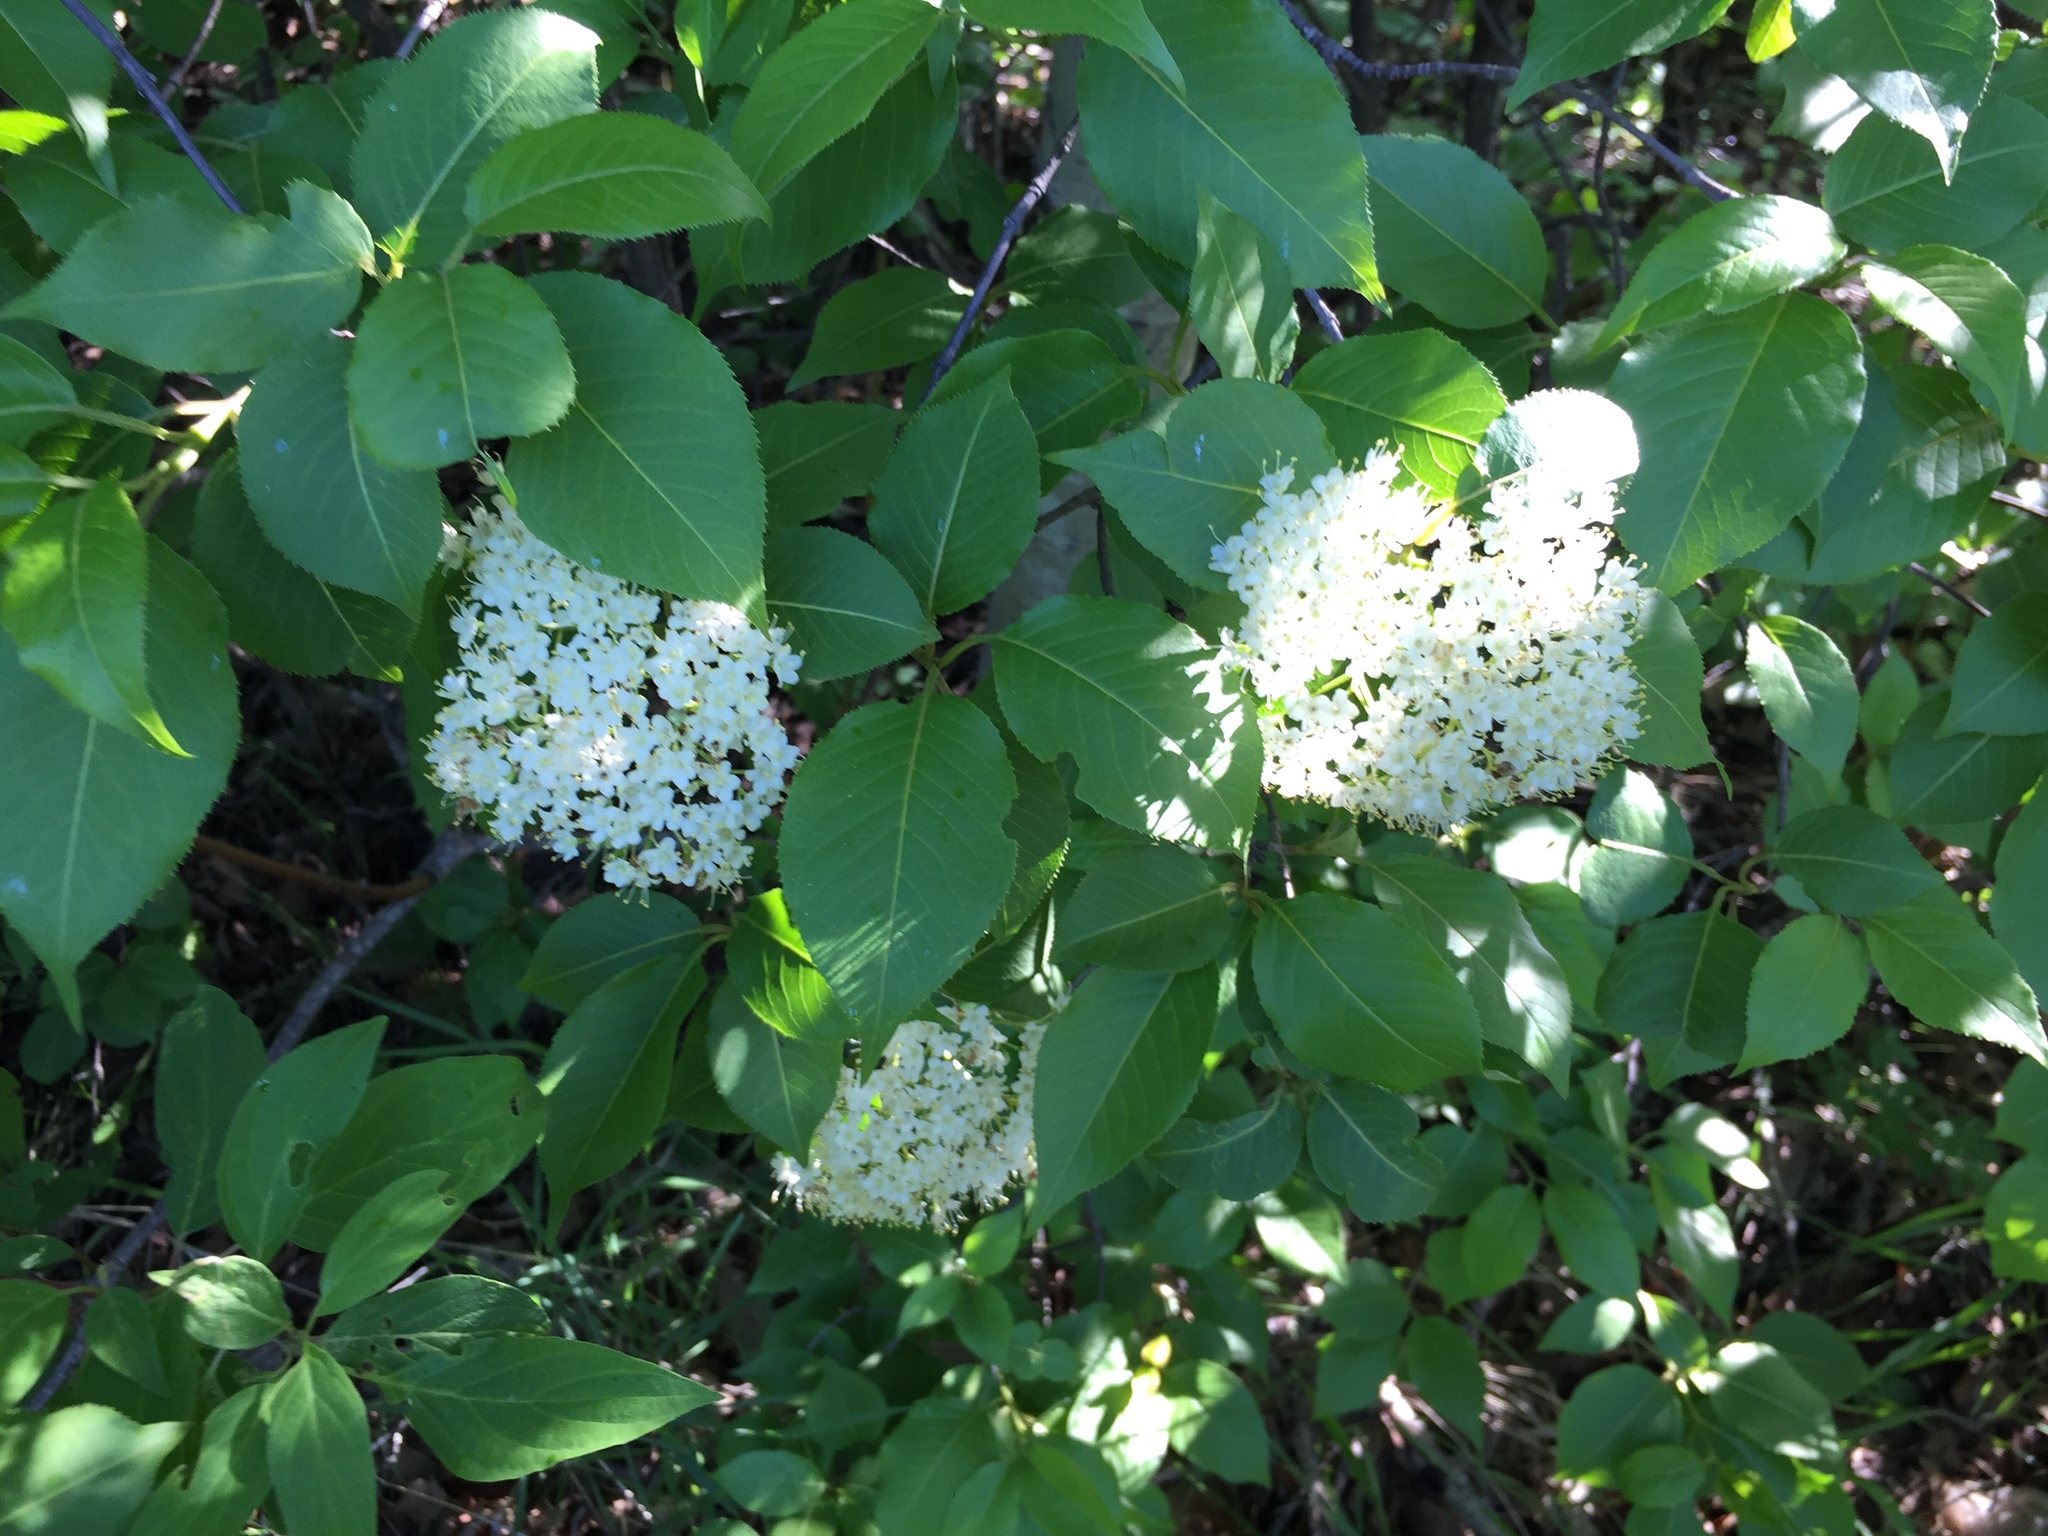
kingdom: Plantae
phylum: Tracheophyta
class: Magnoliopsida
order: Dipsacales
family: Viburnaceae
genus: Viburnum
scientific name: Viburnum lentago
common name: Black haw
